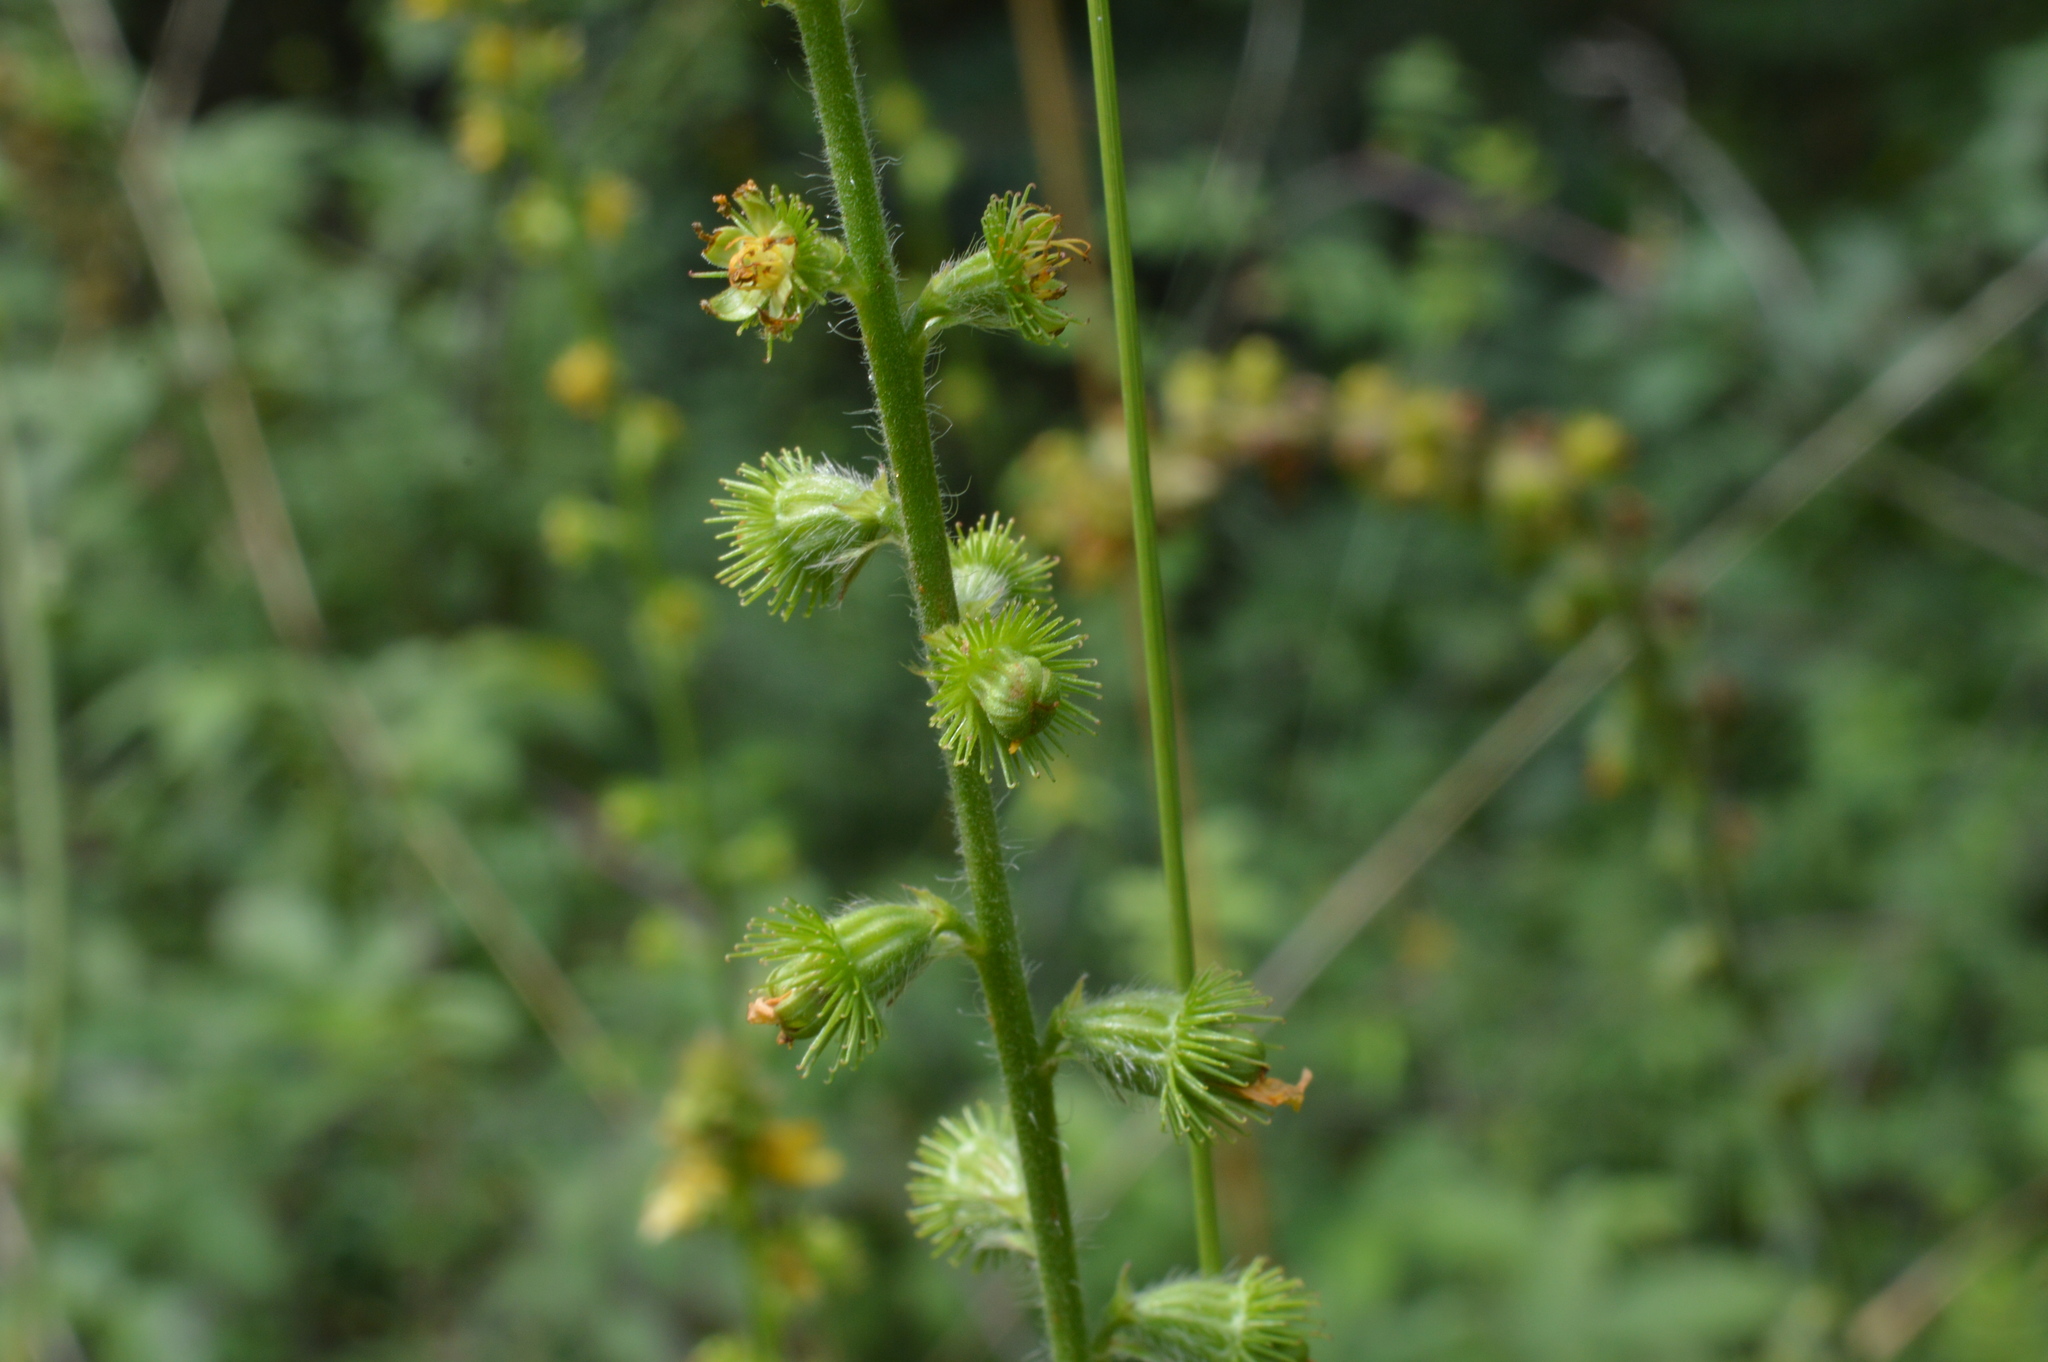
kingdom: Plantae
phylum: Tracheophyta
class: Magnoliopsida
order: Rosales
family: Rosaceae
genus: Agrimonia
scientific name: Agrimonia eupatoria
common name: Agrimony
